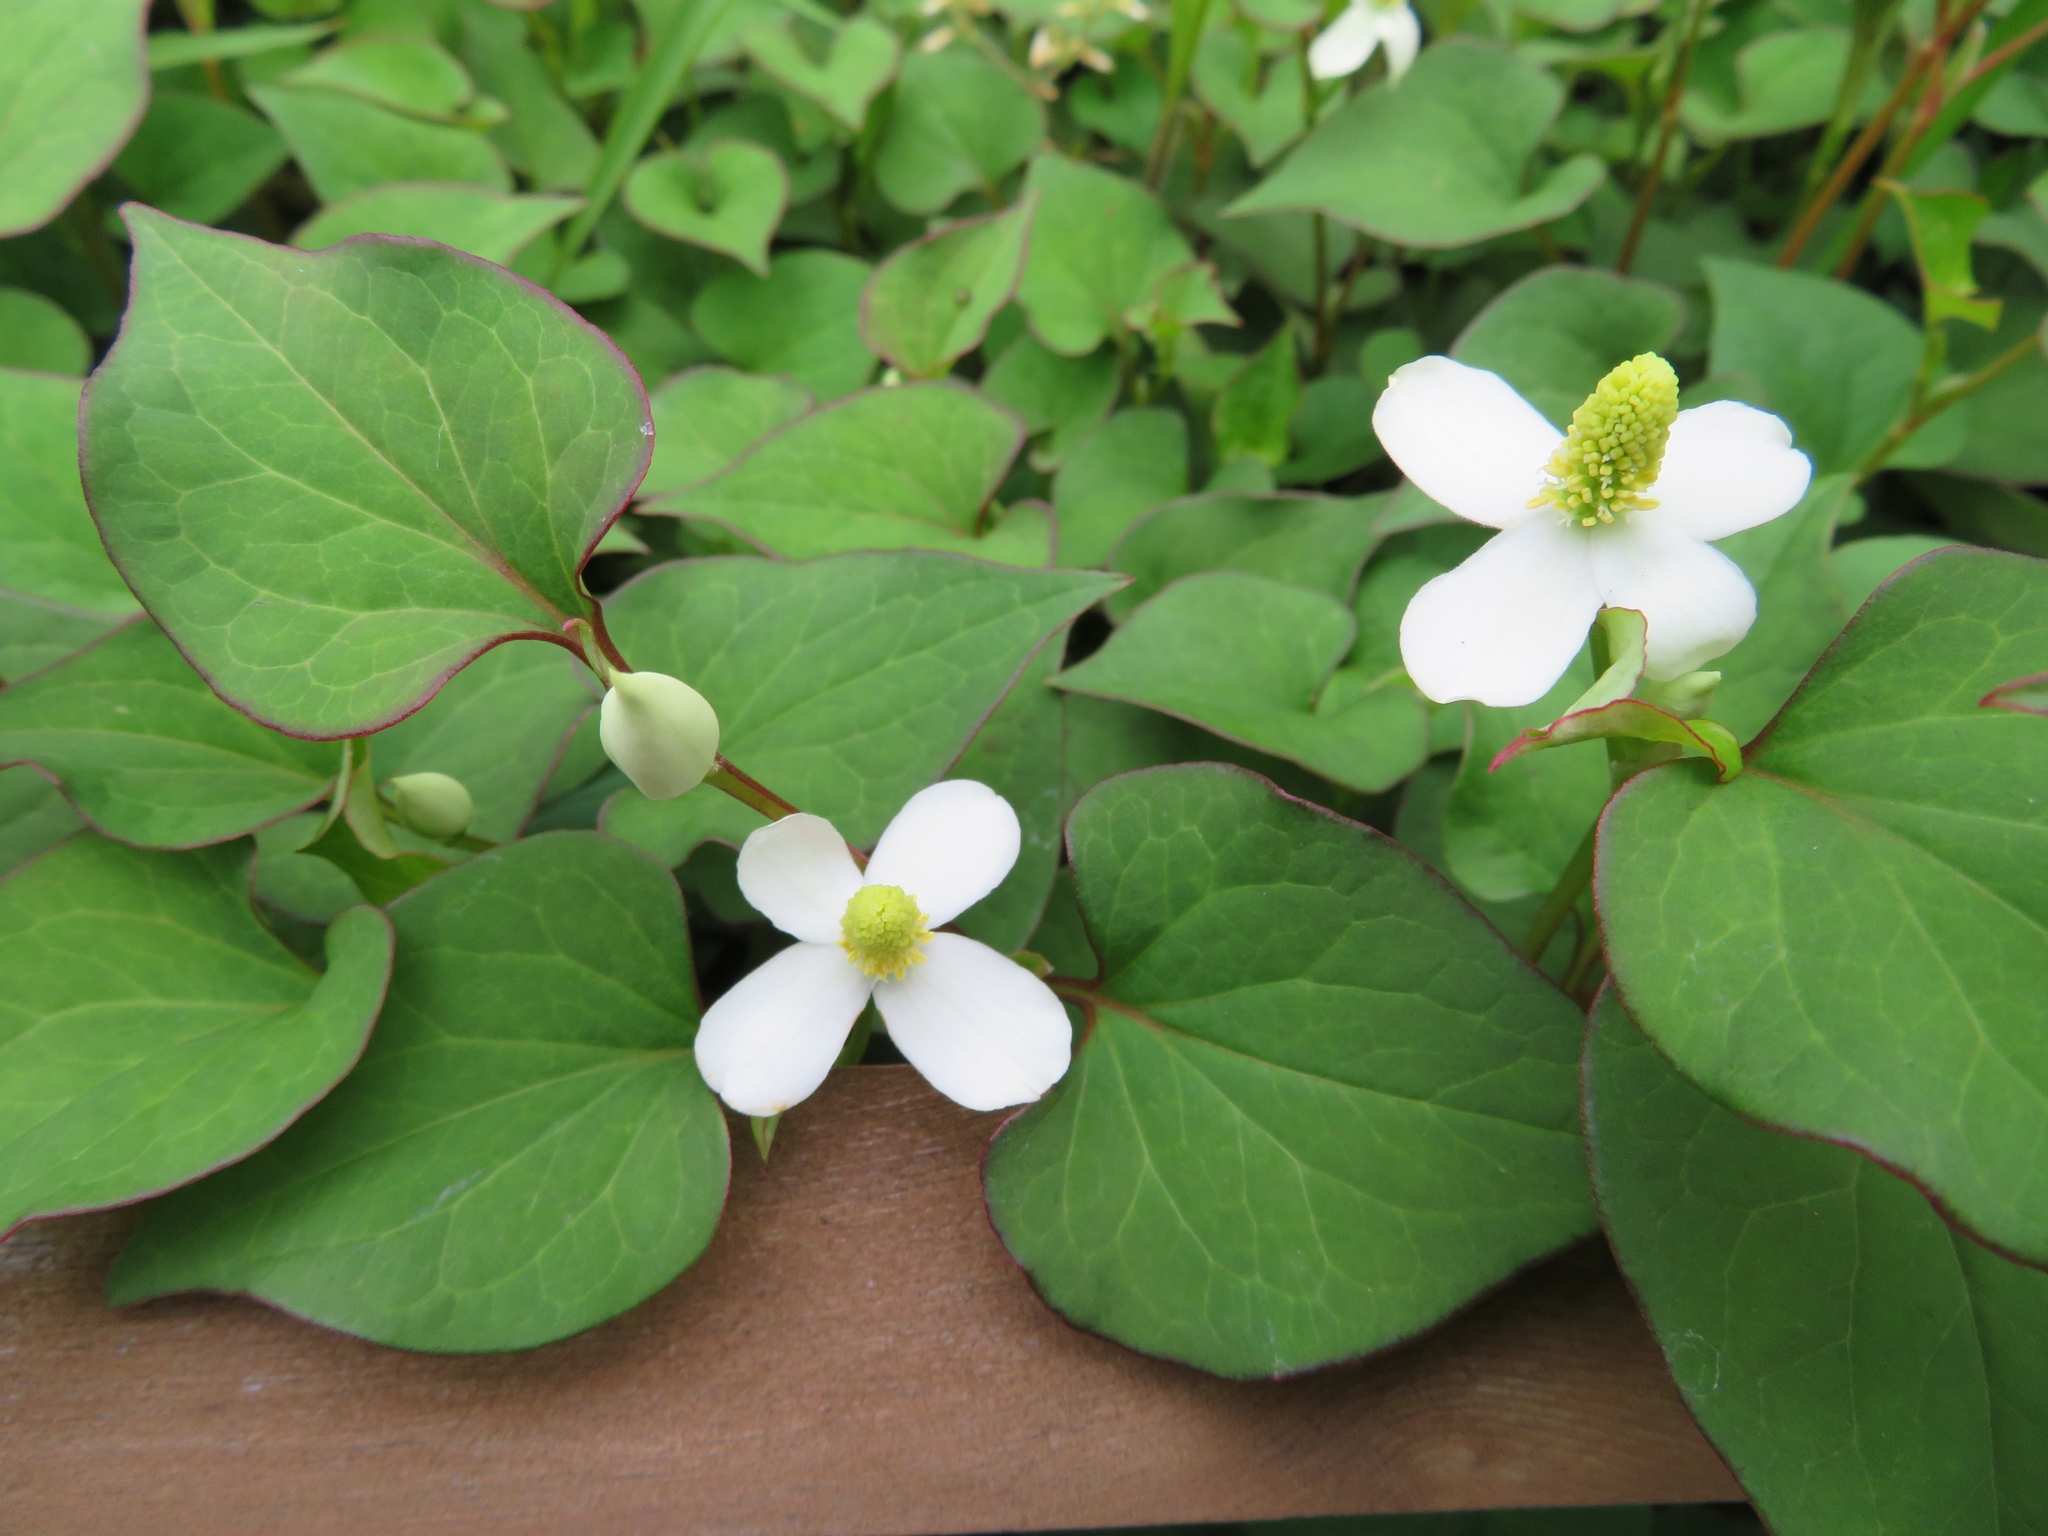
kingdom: Plantae
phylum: Tracheophyta
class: Magnoliopsida
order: Piperales
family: Saururaceae
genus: Houttuynia
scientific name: Houttuynia cordata
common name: Chameleon
